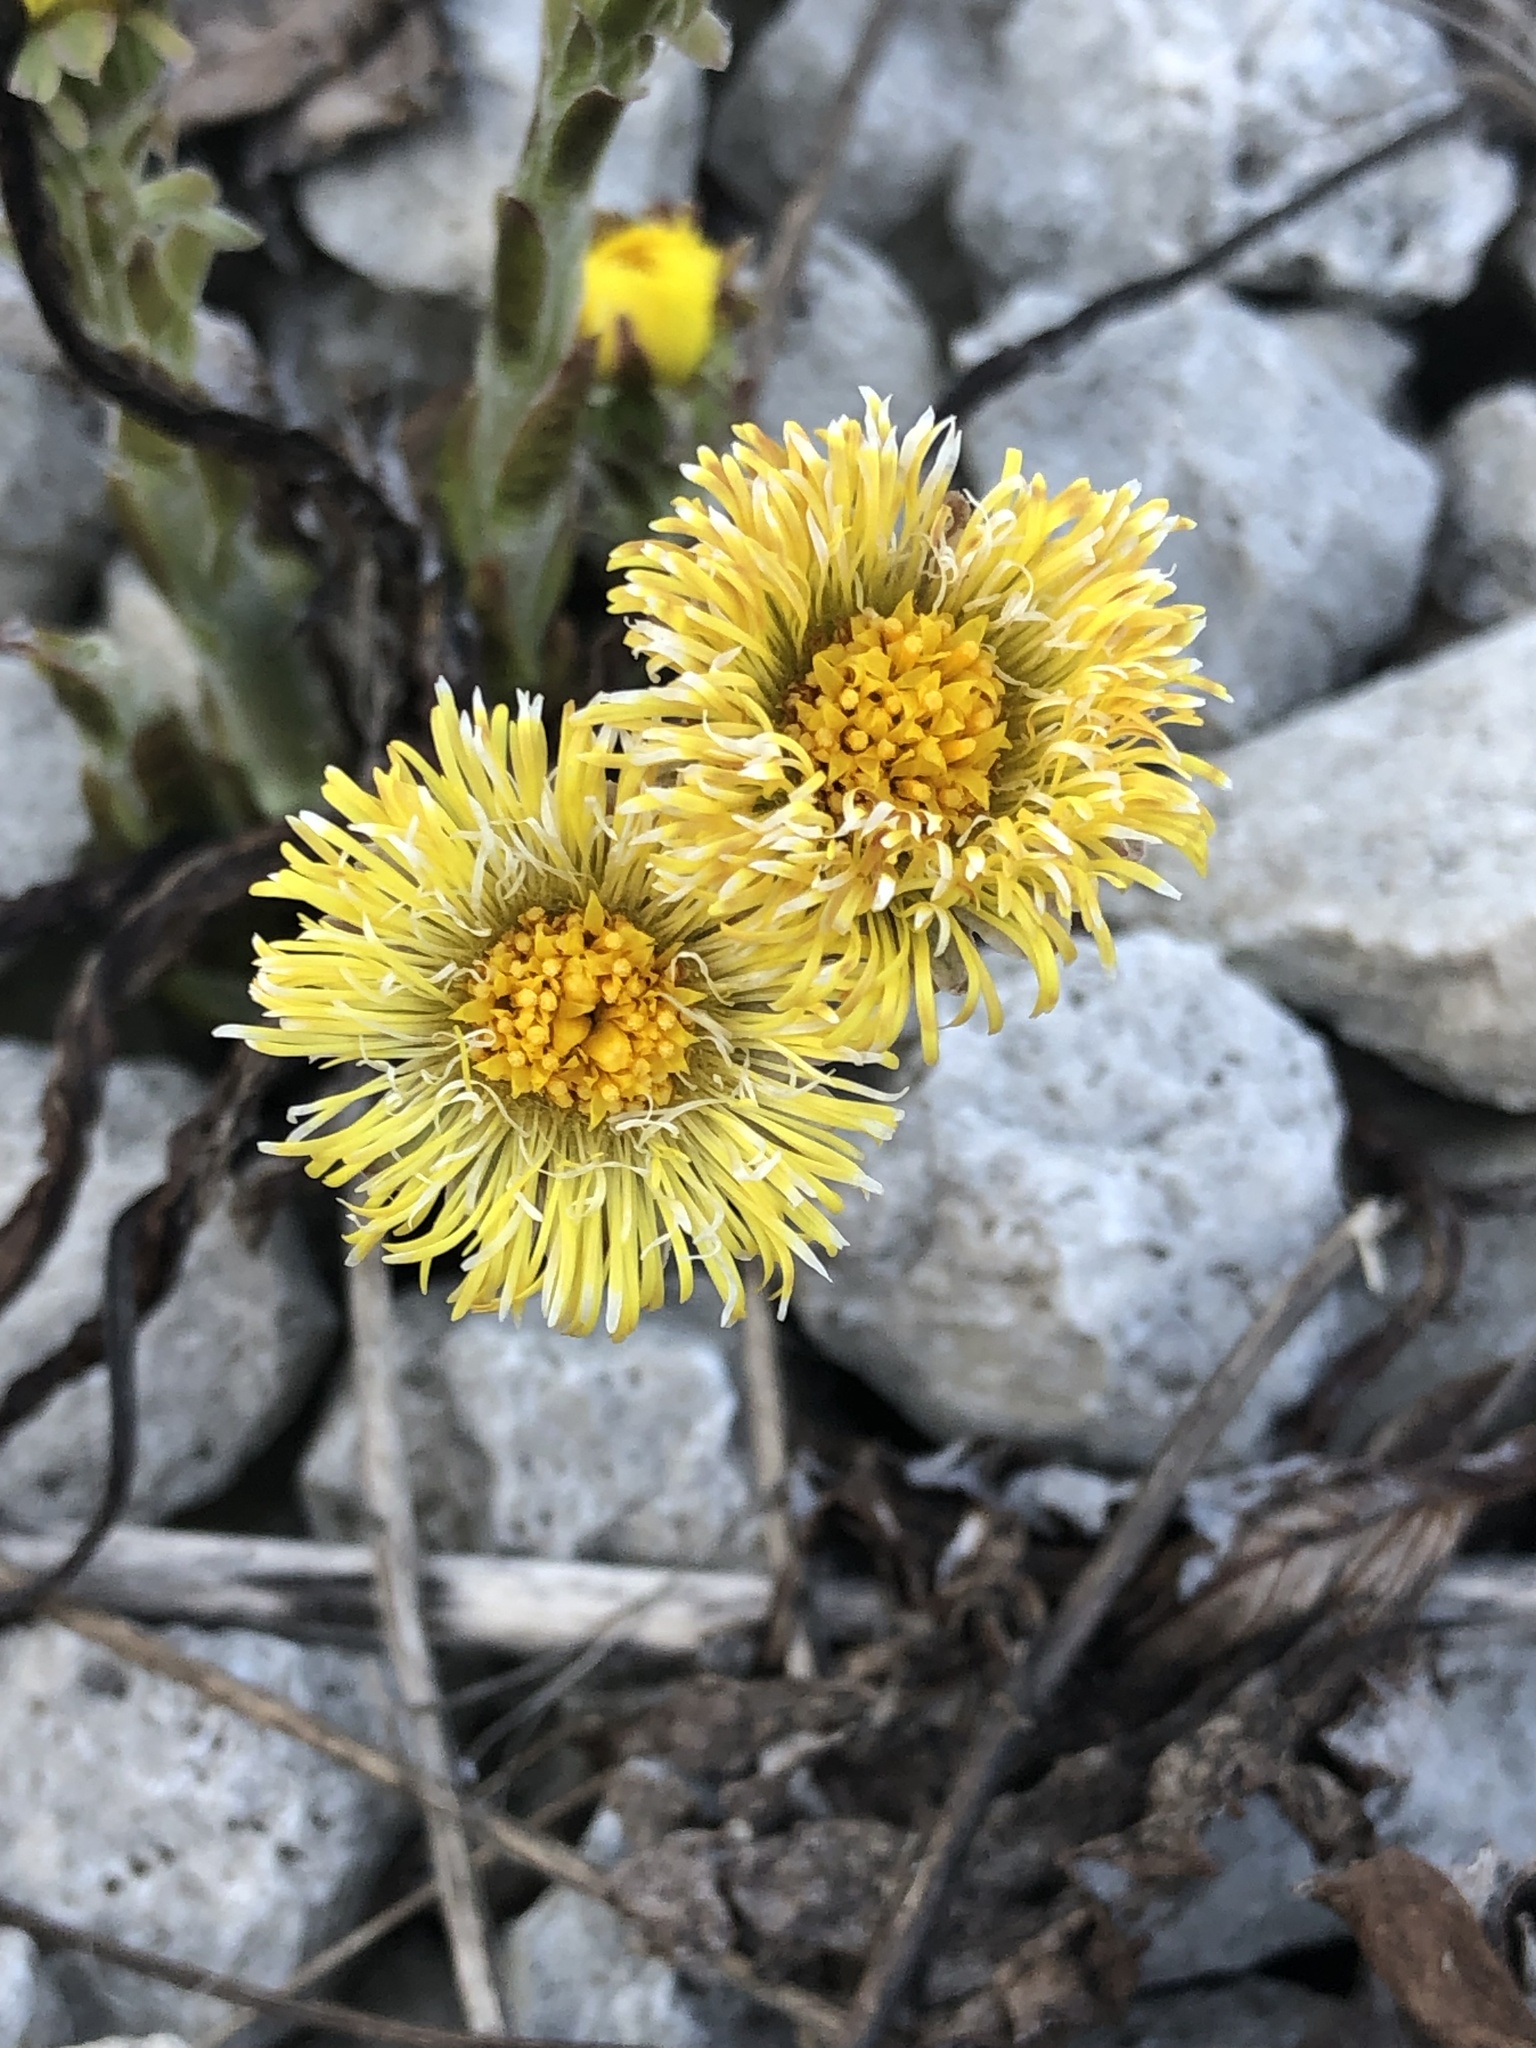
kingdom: Plantae
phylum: Tracheophyta
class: Magnoliopsida
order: Asterales
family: Asteraceae
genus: Tussilago
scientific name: Tussilago farfara
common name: Coltsfoot
